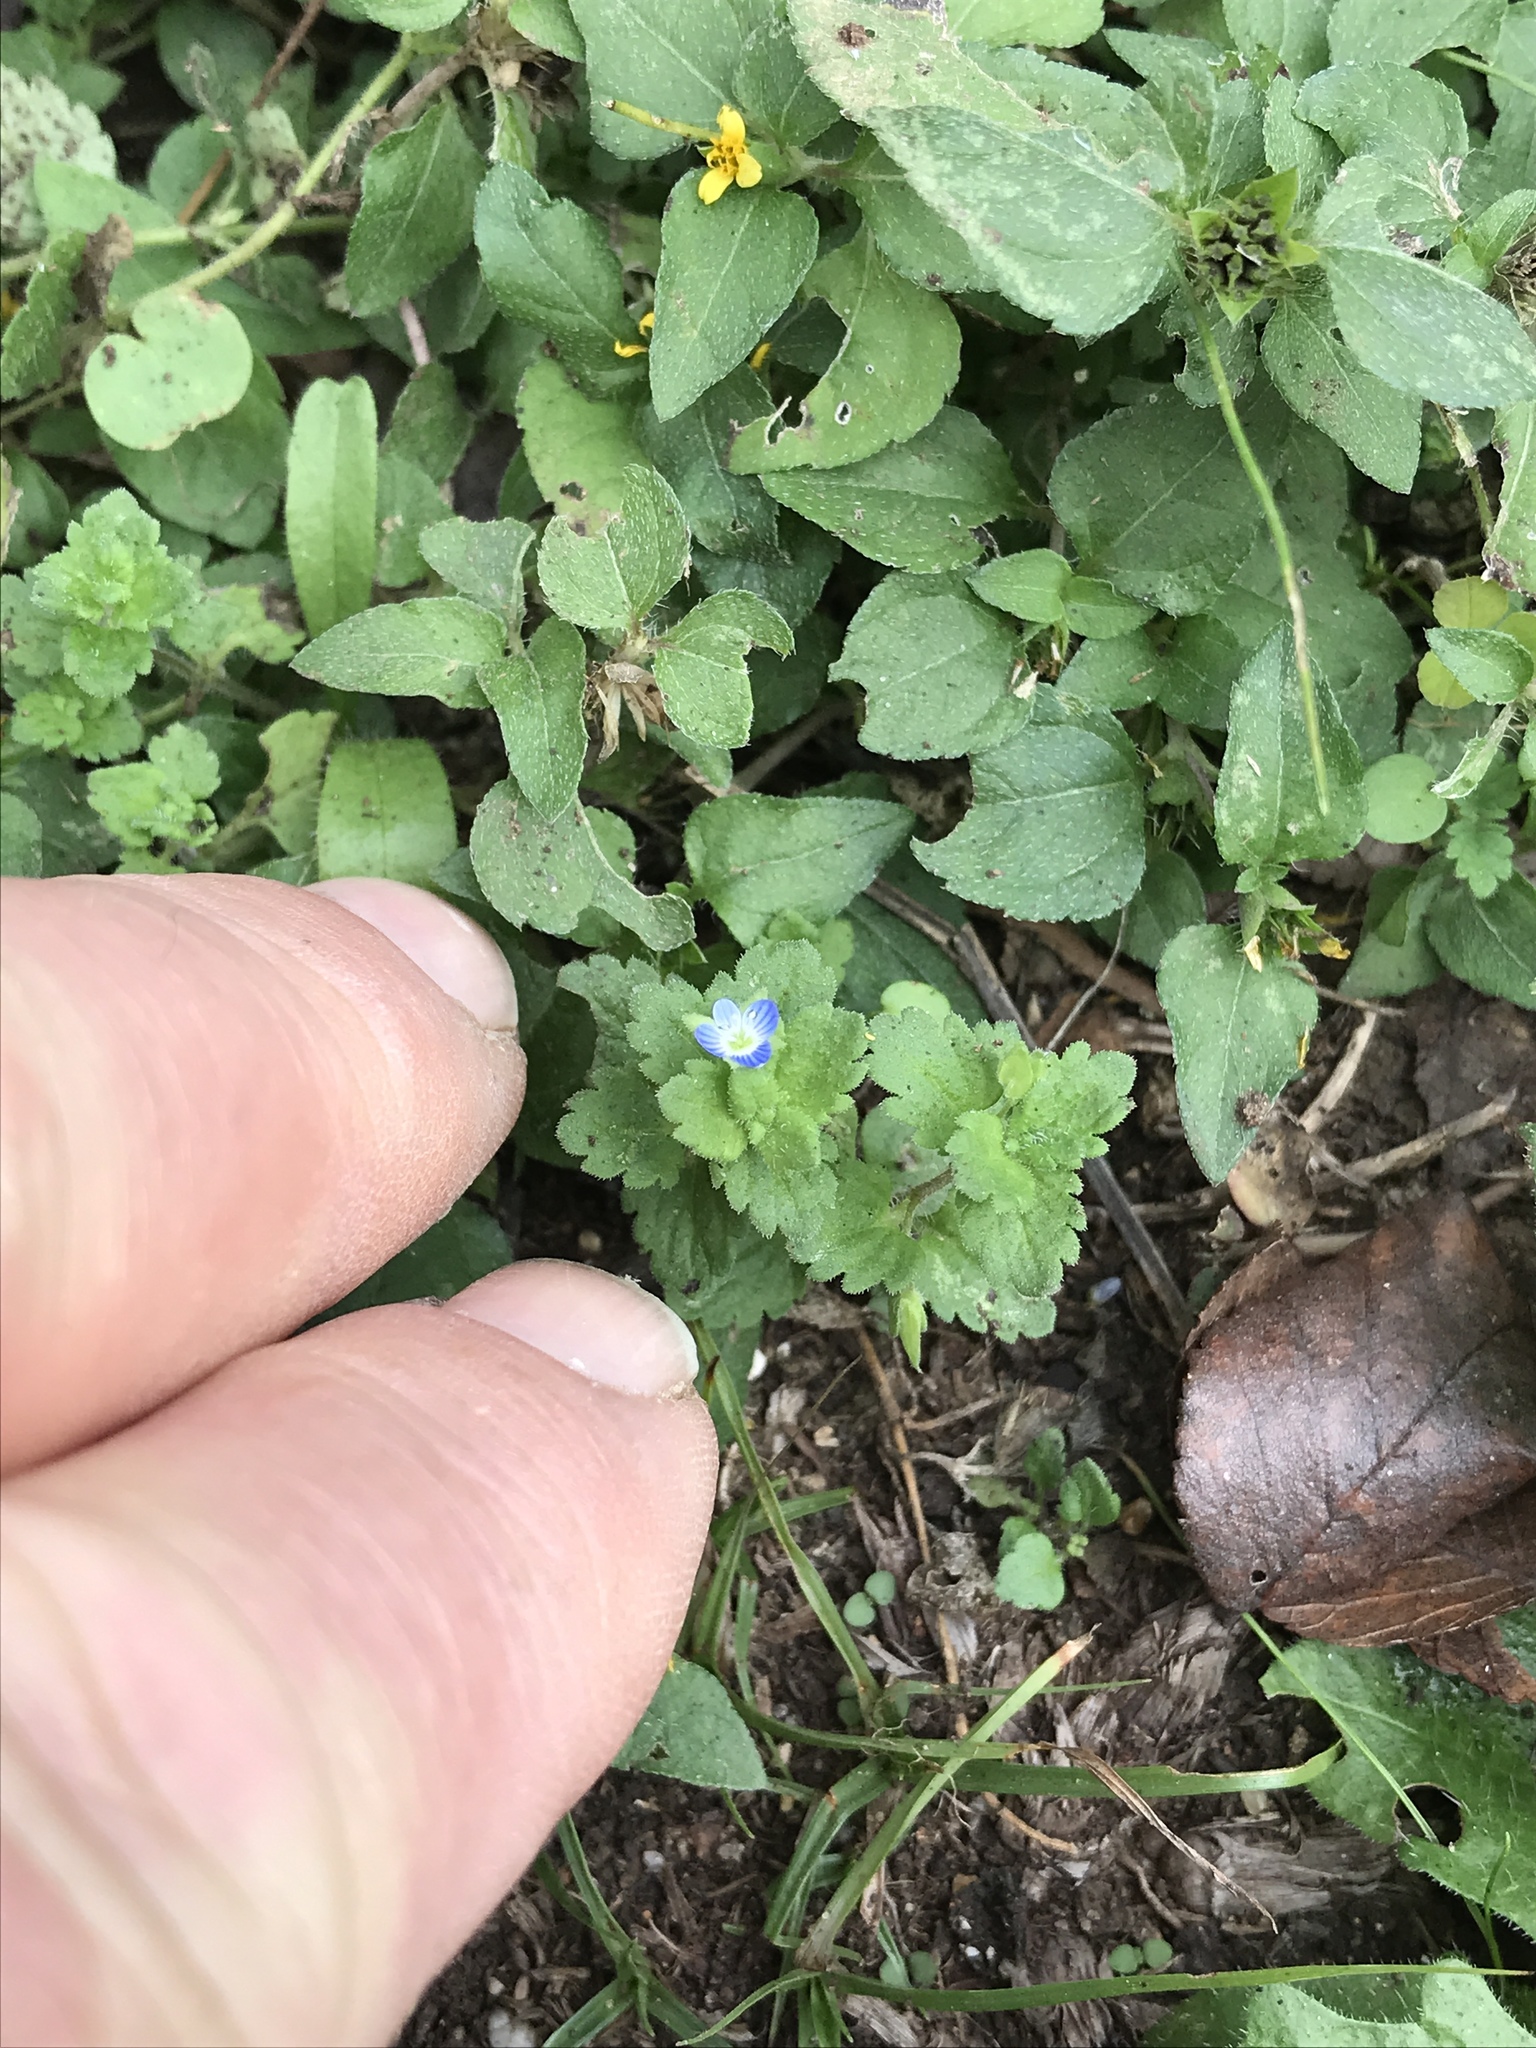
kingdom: Plantae
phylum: Tracheophyta
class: Magnoliopsida
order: Lamiales
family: Plantaginaceae
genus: Veronica
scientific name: Veronica polita
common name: Grey field-speedwell
